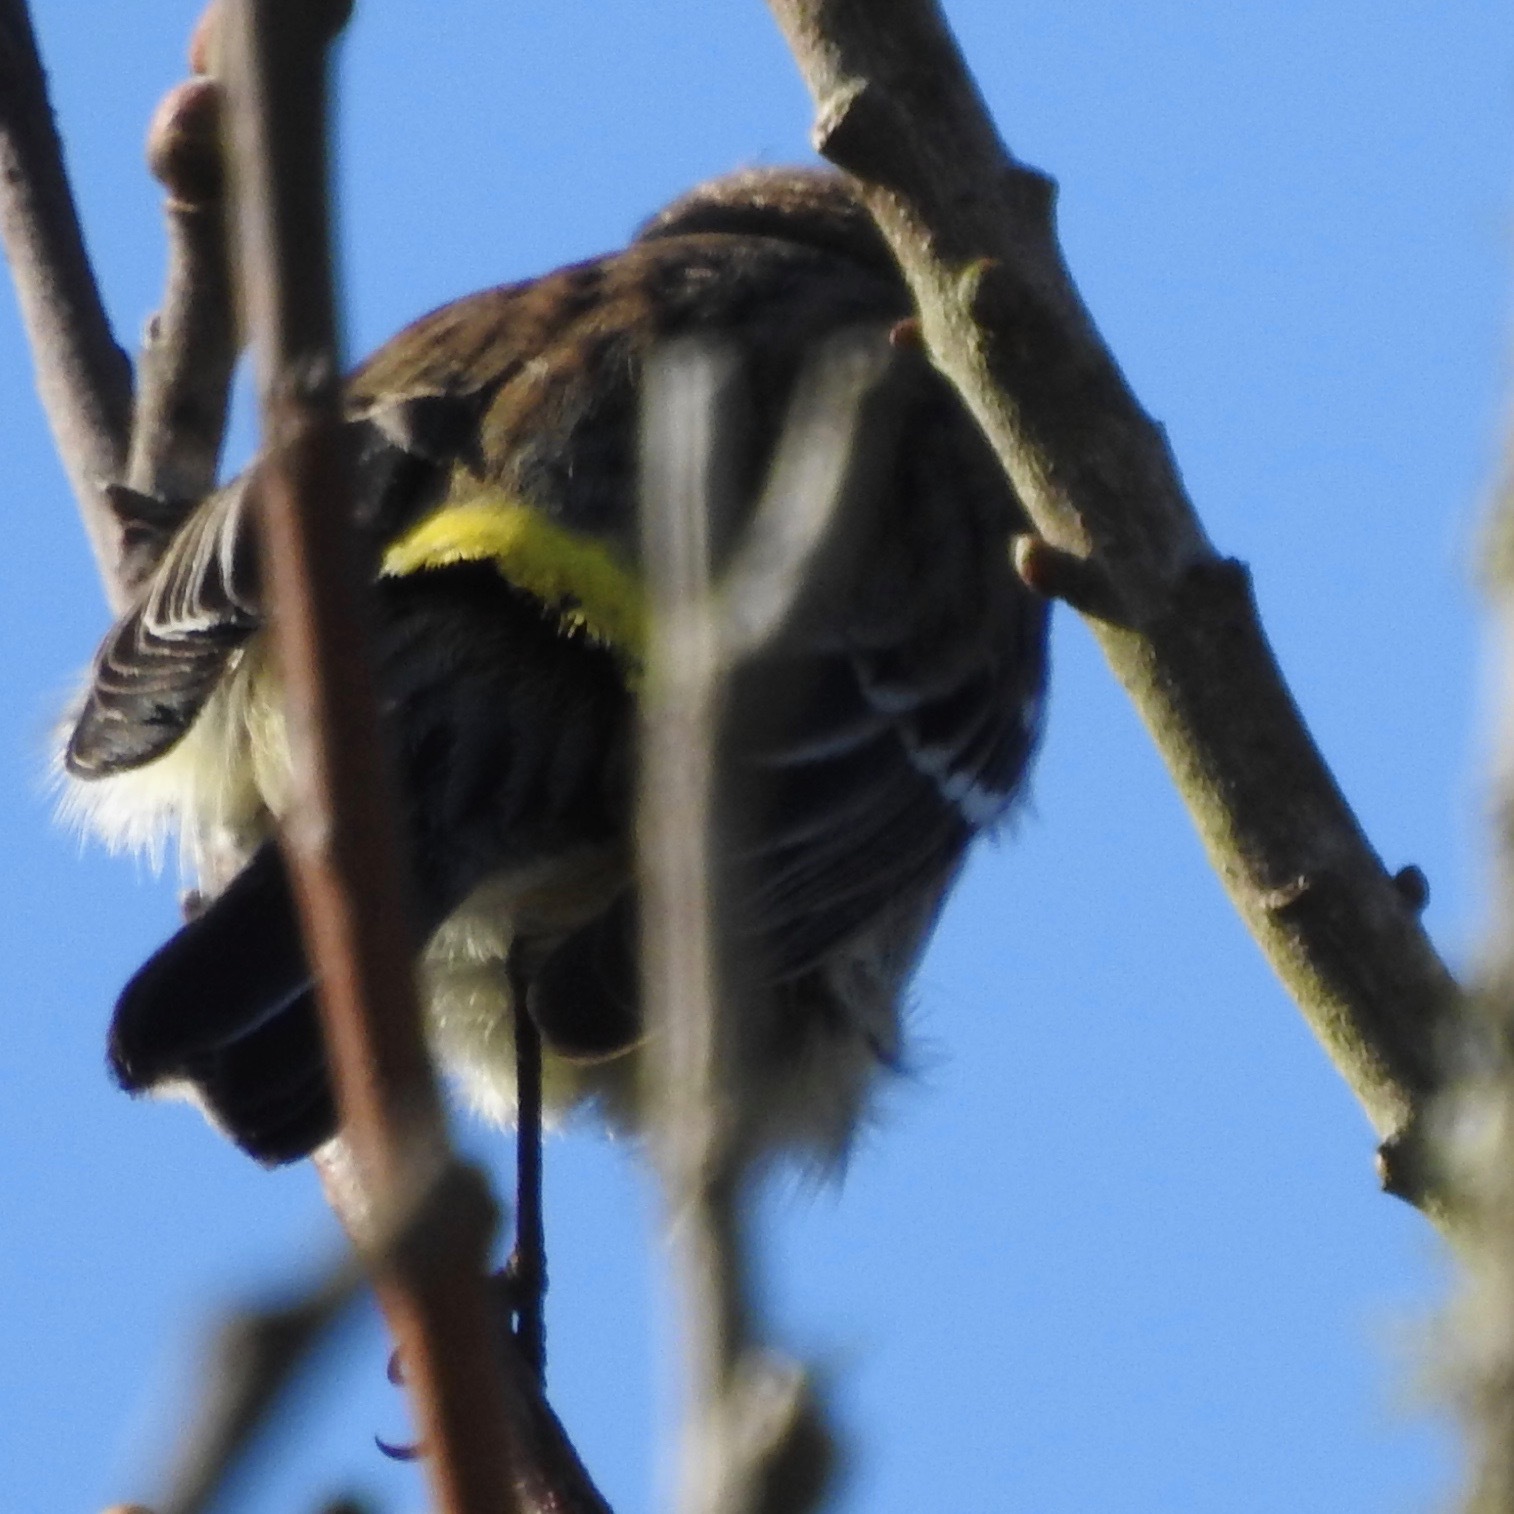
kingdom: Animalia
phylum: Chordata
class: Aves
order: Passeriformes
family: Parulidae
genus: Setophaga
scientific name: Setophaga coronata
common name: Myrtle warbler
